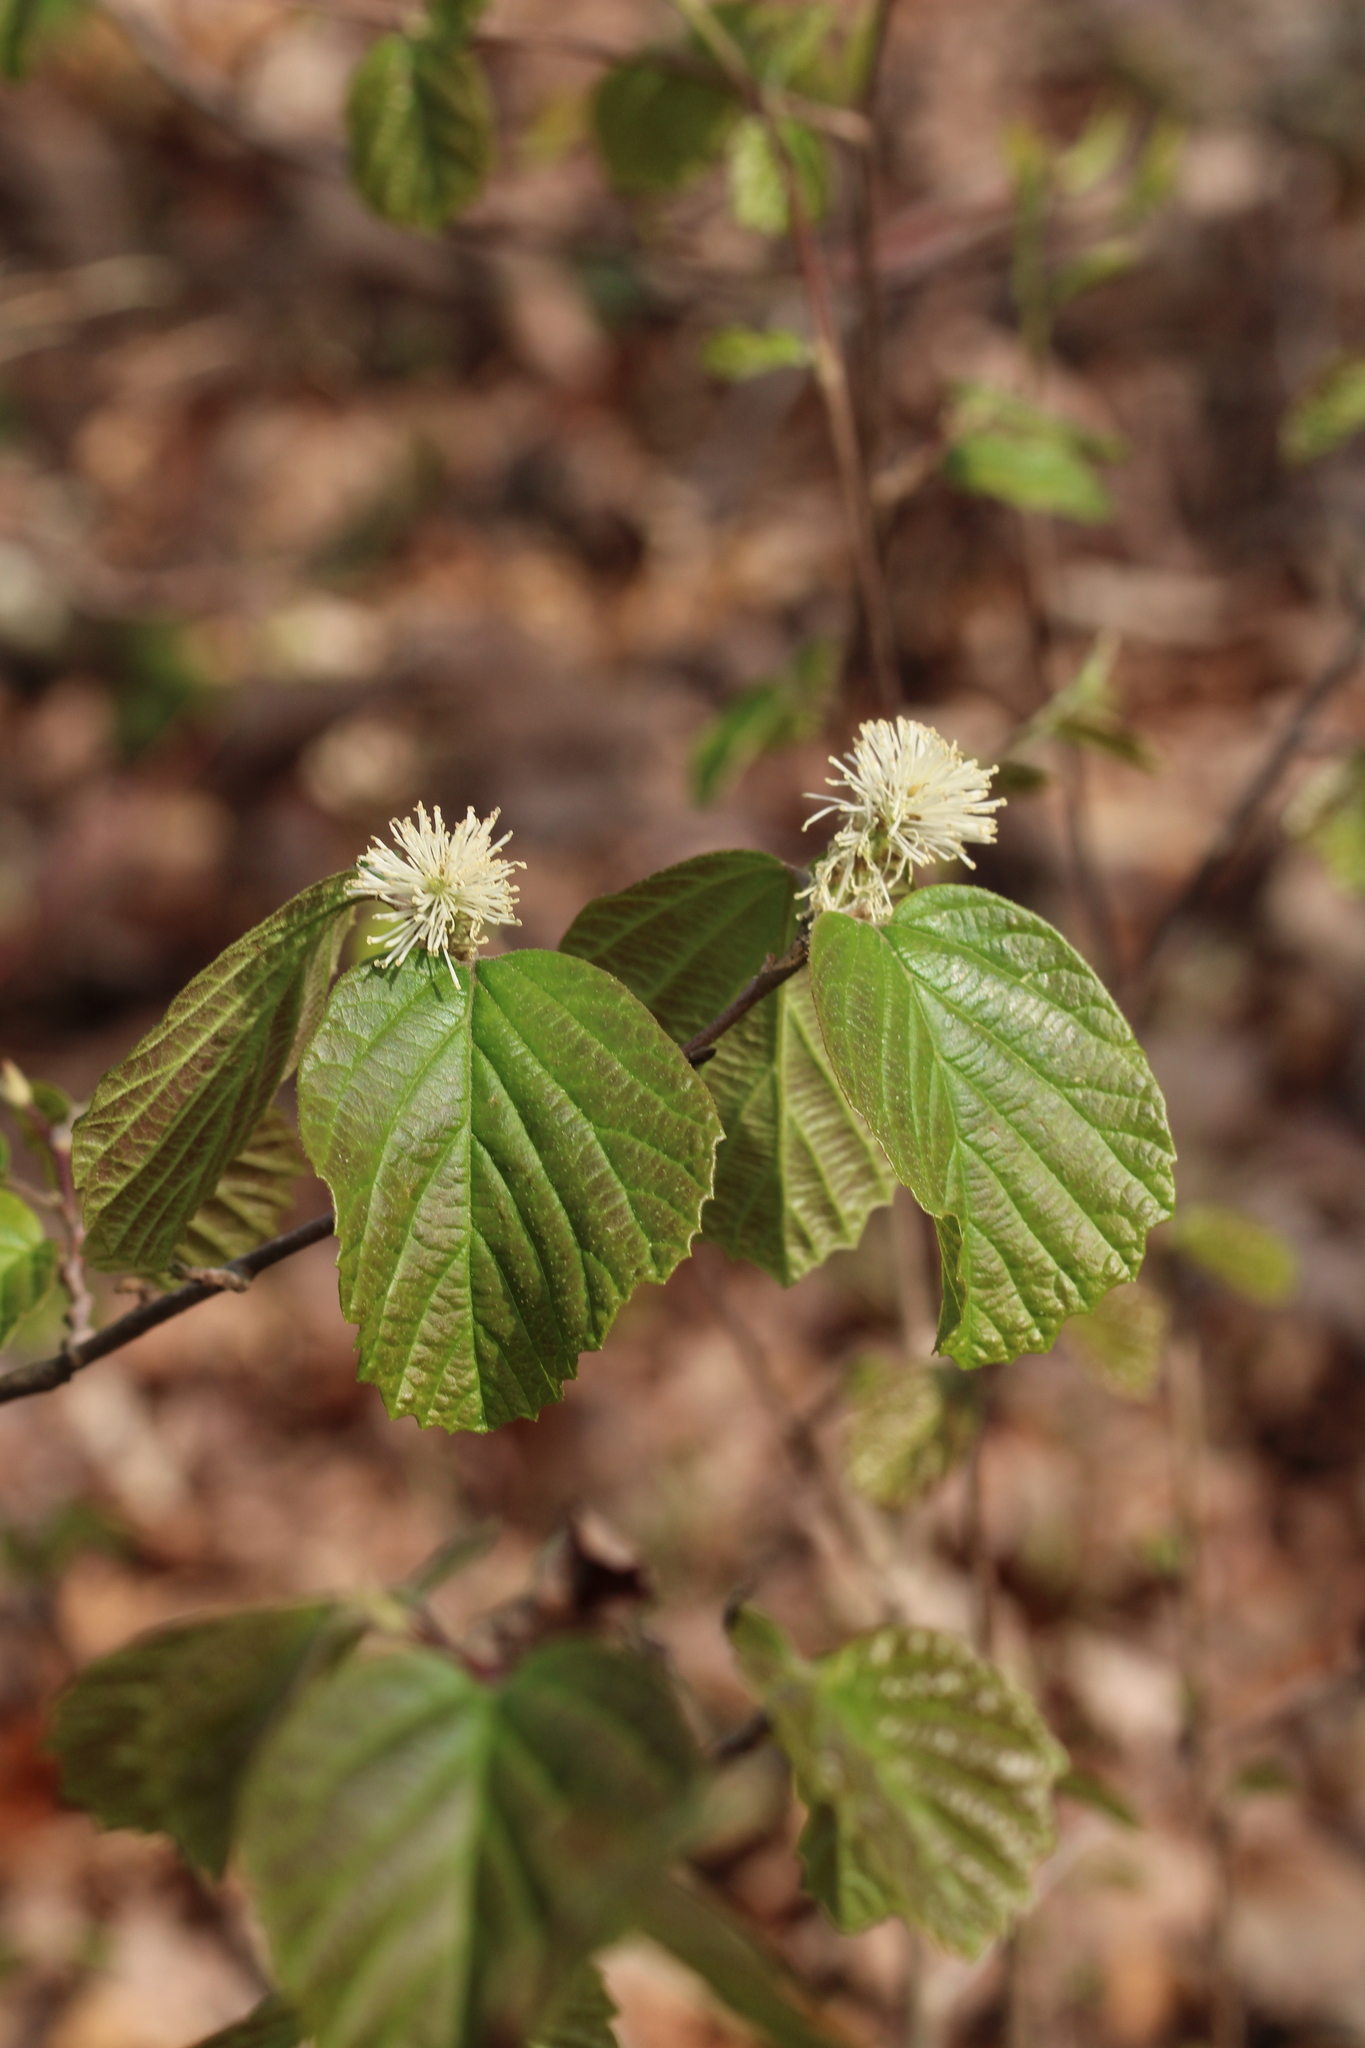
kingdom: Plantae
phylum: Tracheophyta
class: Magnoliopsida
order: Saxifragales
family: Hamamelidaceae
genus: Fothergilla
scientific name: Fothergilla latifolia
